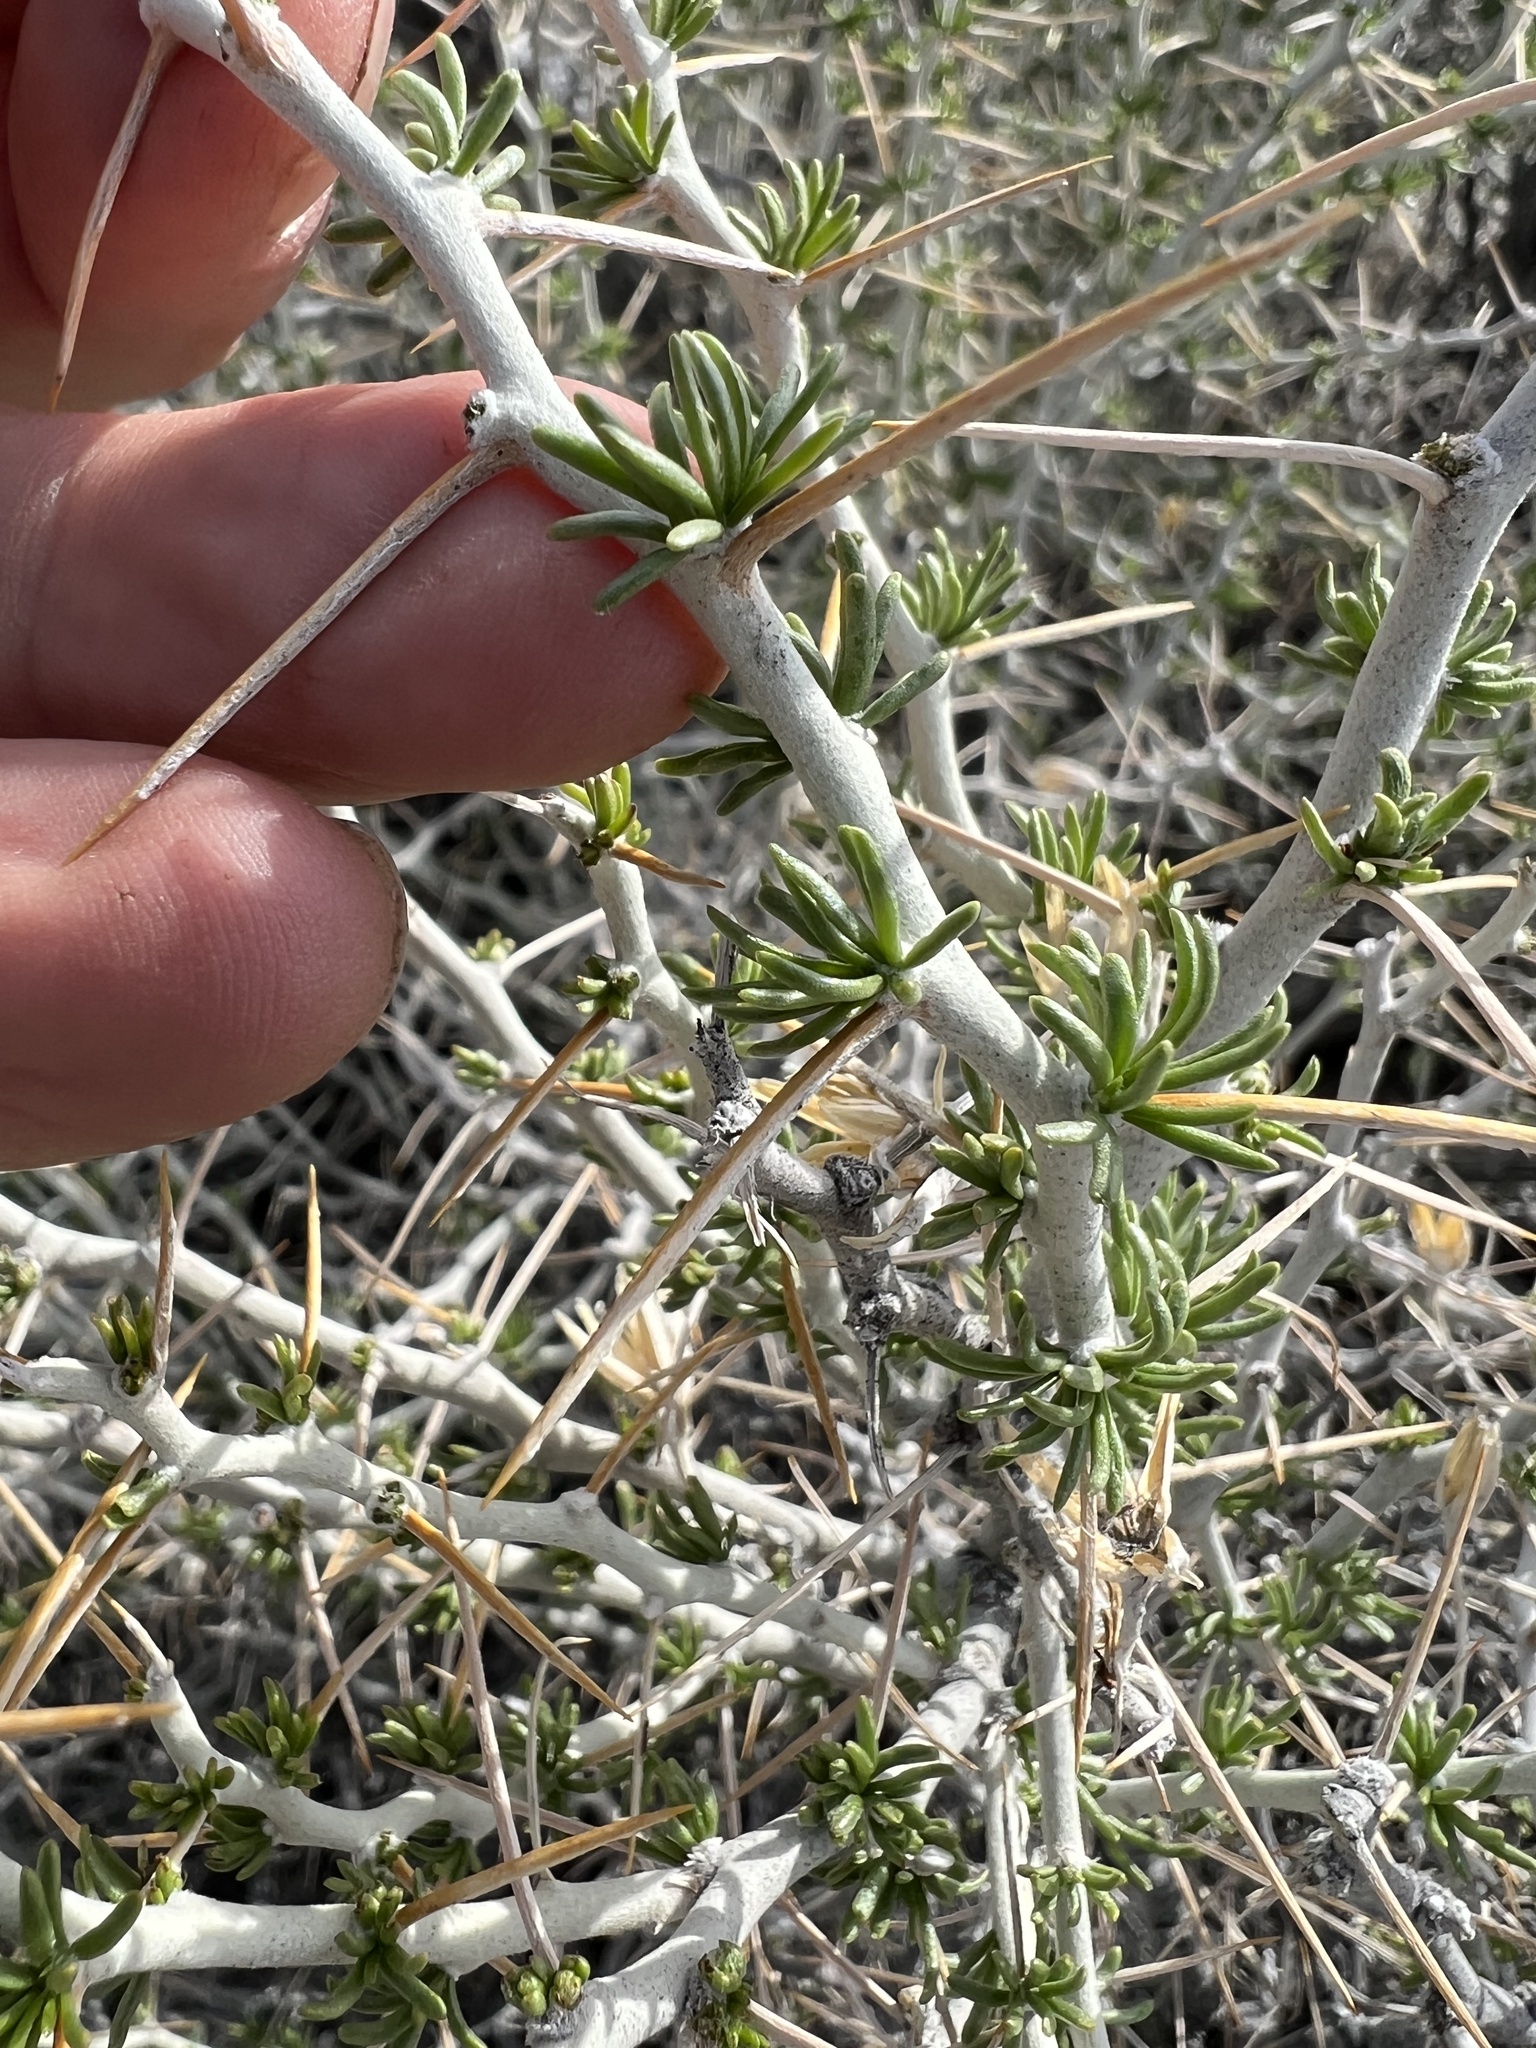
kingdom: Plantae
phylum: Tracheophyta
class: Magnoliopsida
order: Asterales
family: Asteraceae
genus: Tetradymia
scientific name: Tetradymia axillaris
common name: Long-spine horsebrush
